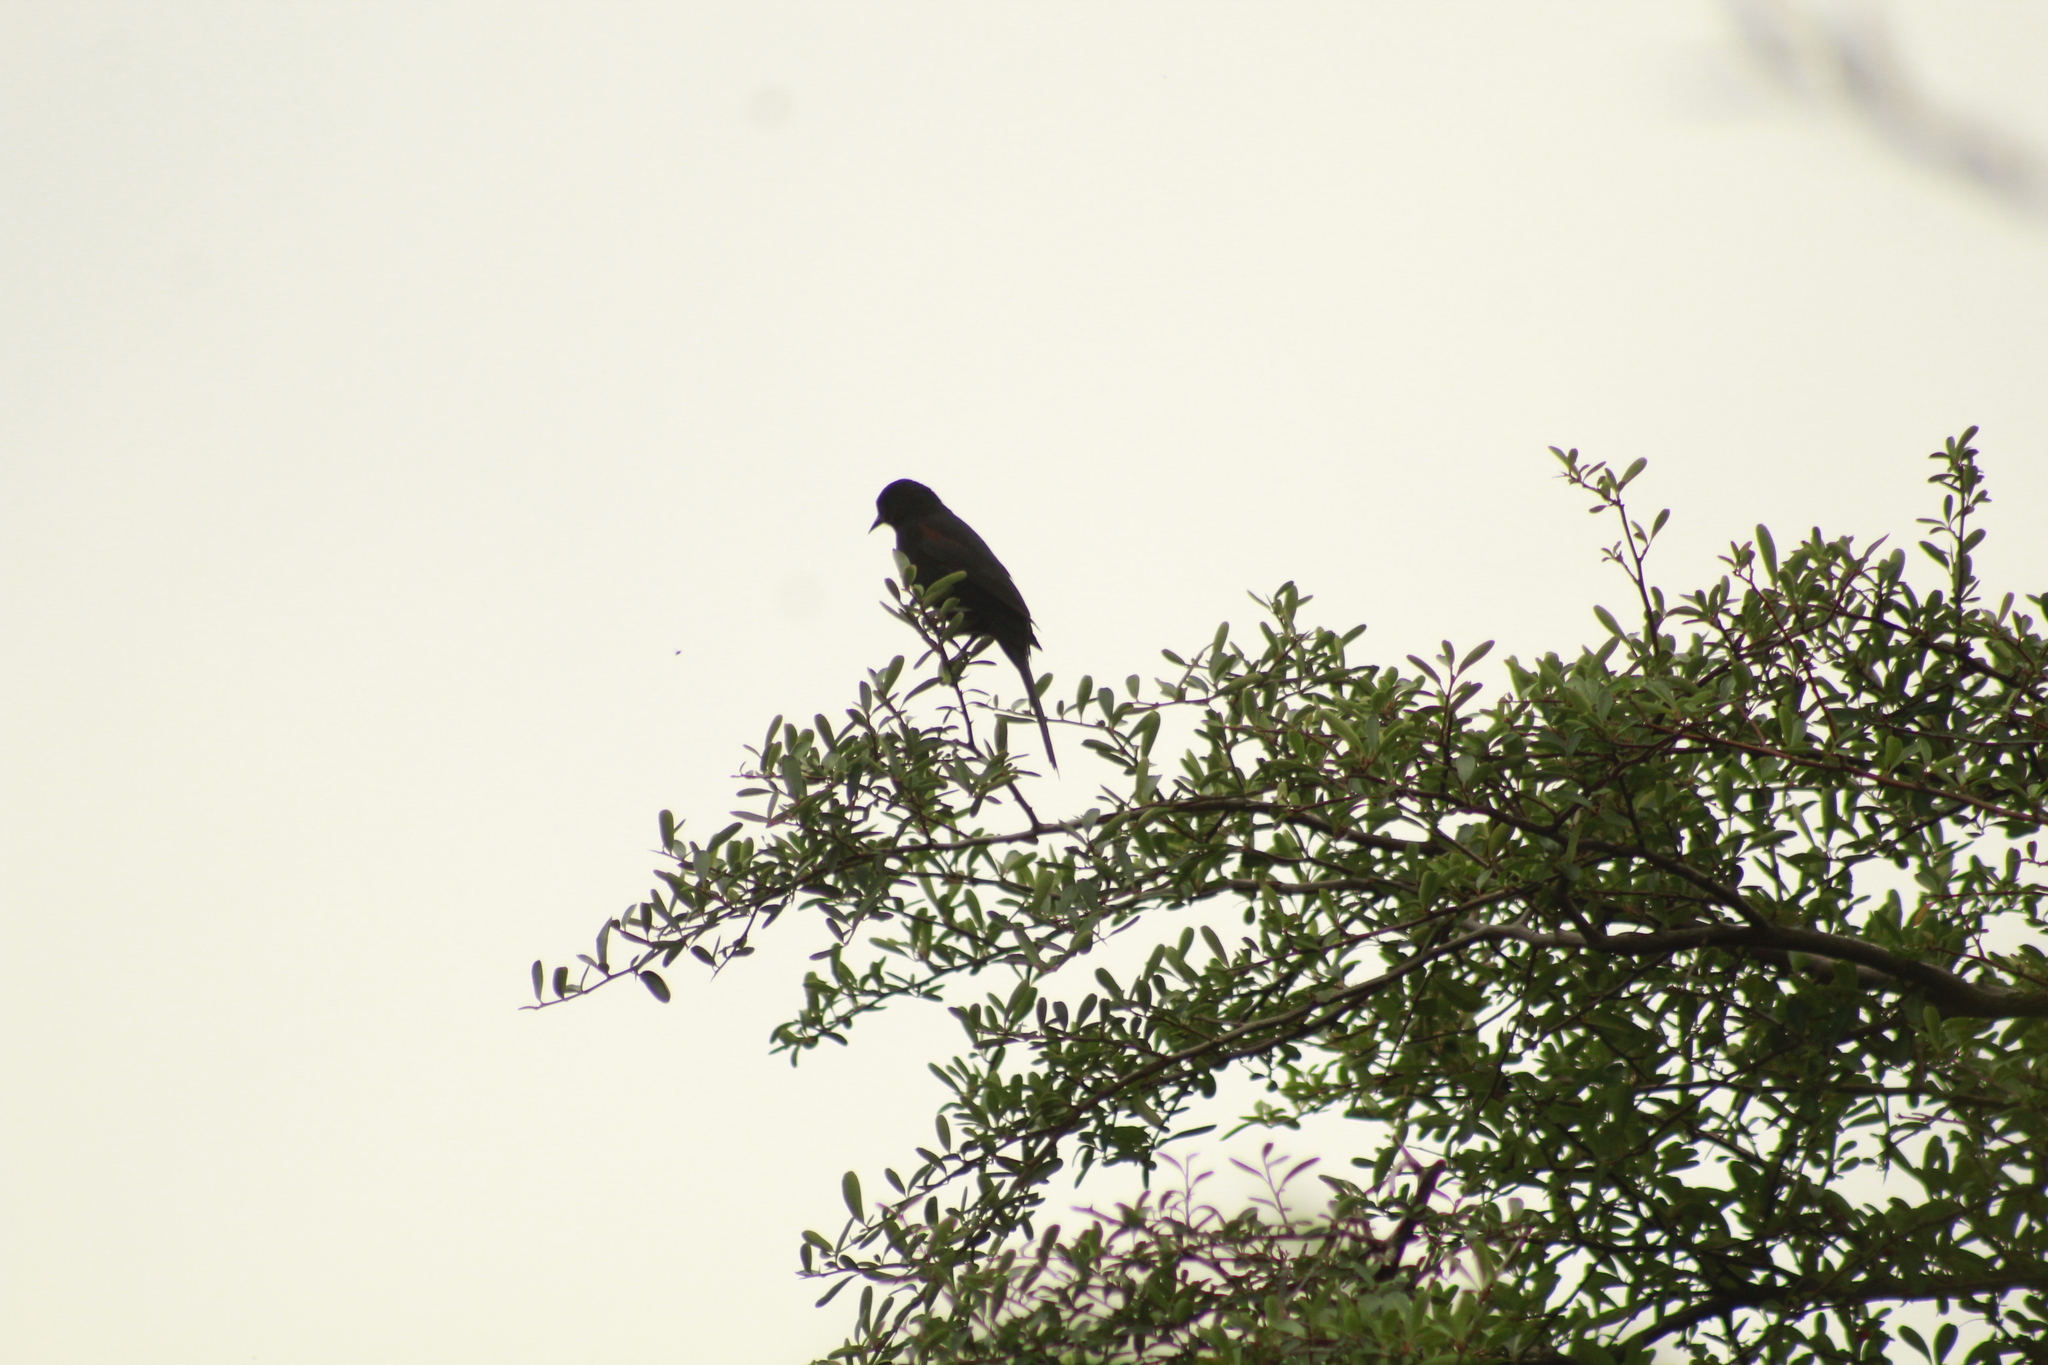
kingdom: Animalia
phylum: Chordata
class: Aves
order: Passeriformes
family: Icteridae
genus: Icterus
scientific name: Icterus cayanensis
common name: Epaulet oriole
